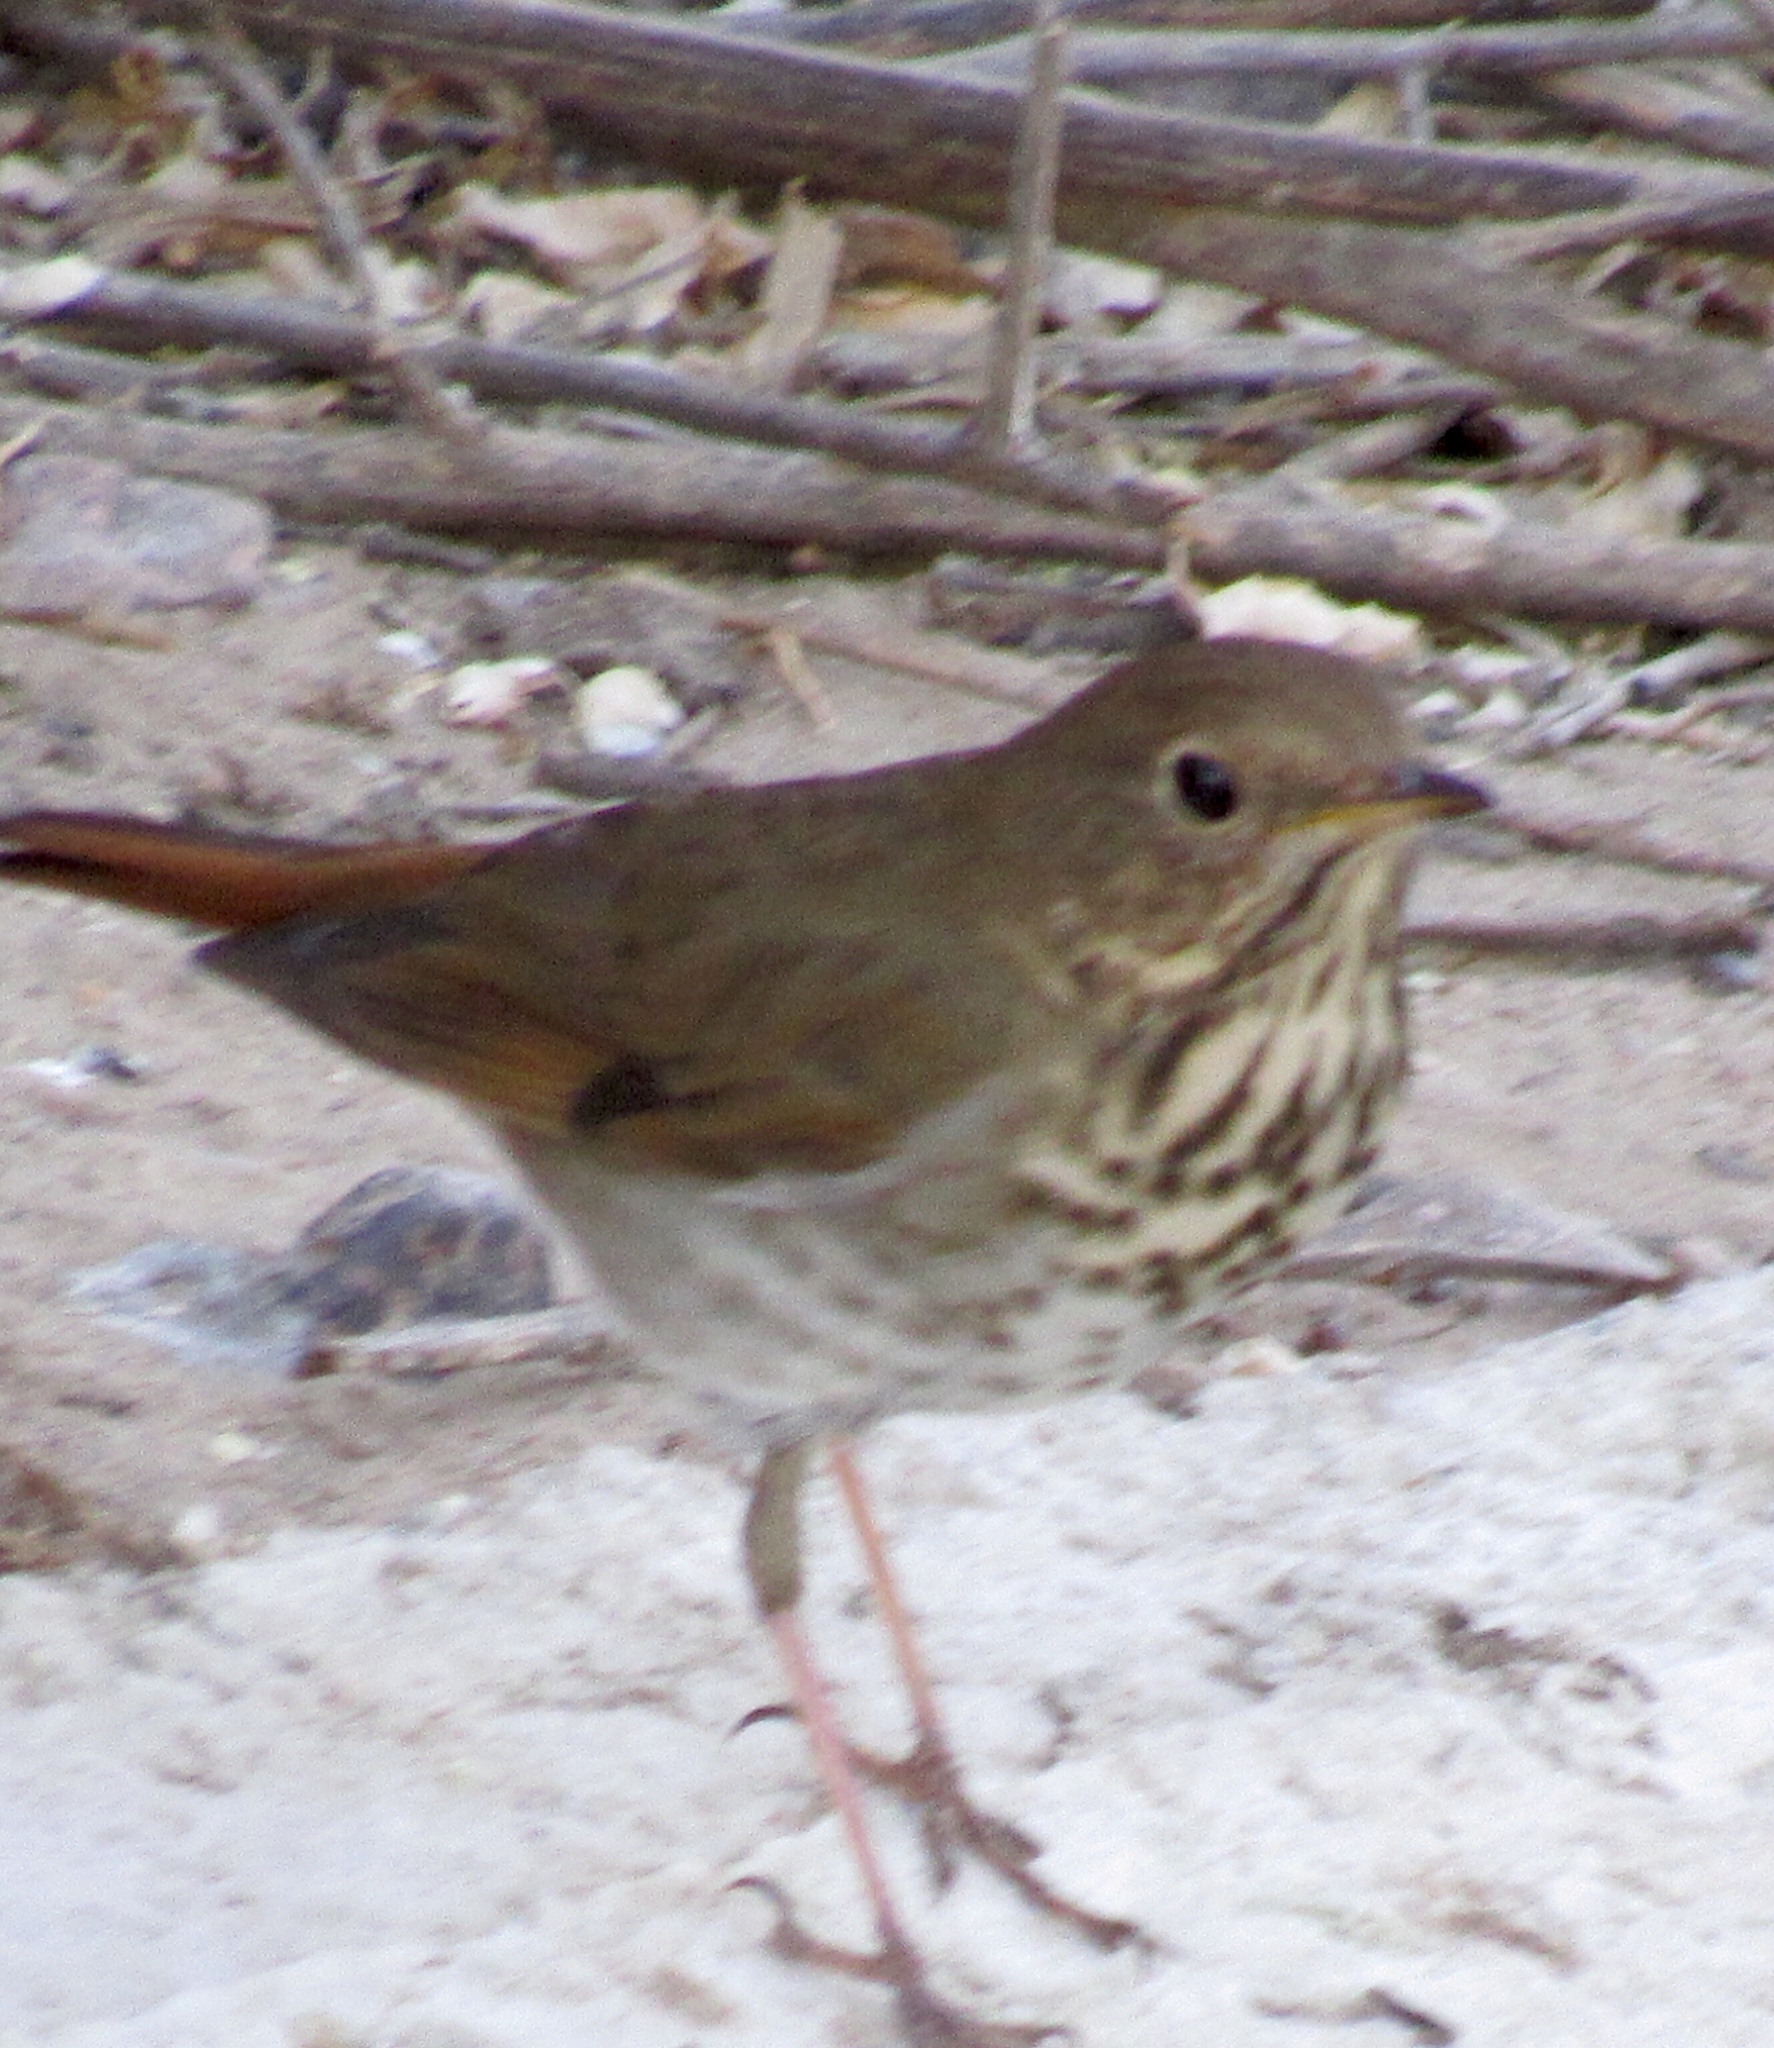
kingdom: Animalia
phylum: Chordata
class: Aves
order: Passeriformes
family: Turdidae
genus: Catharus
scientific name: Catharus guttatus
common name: Hermit thrush
